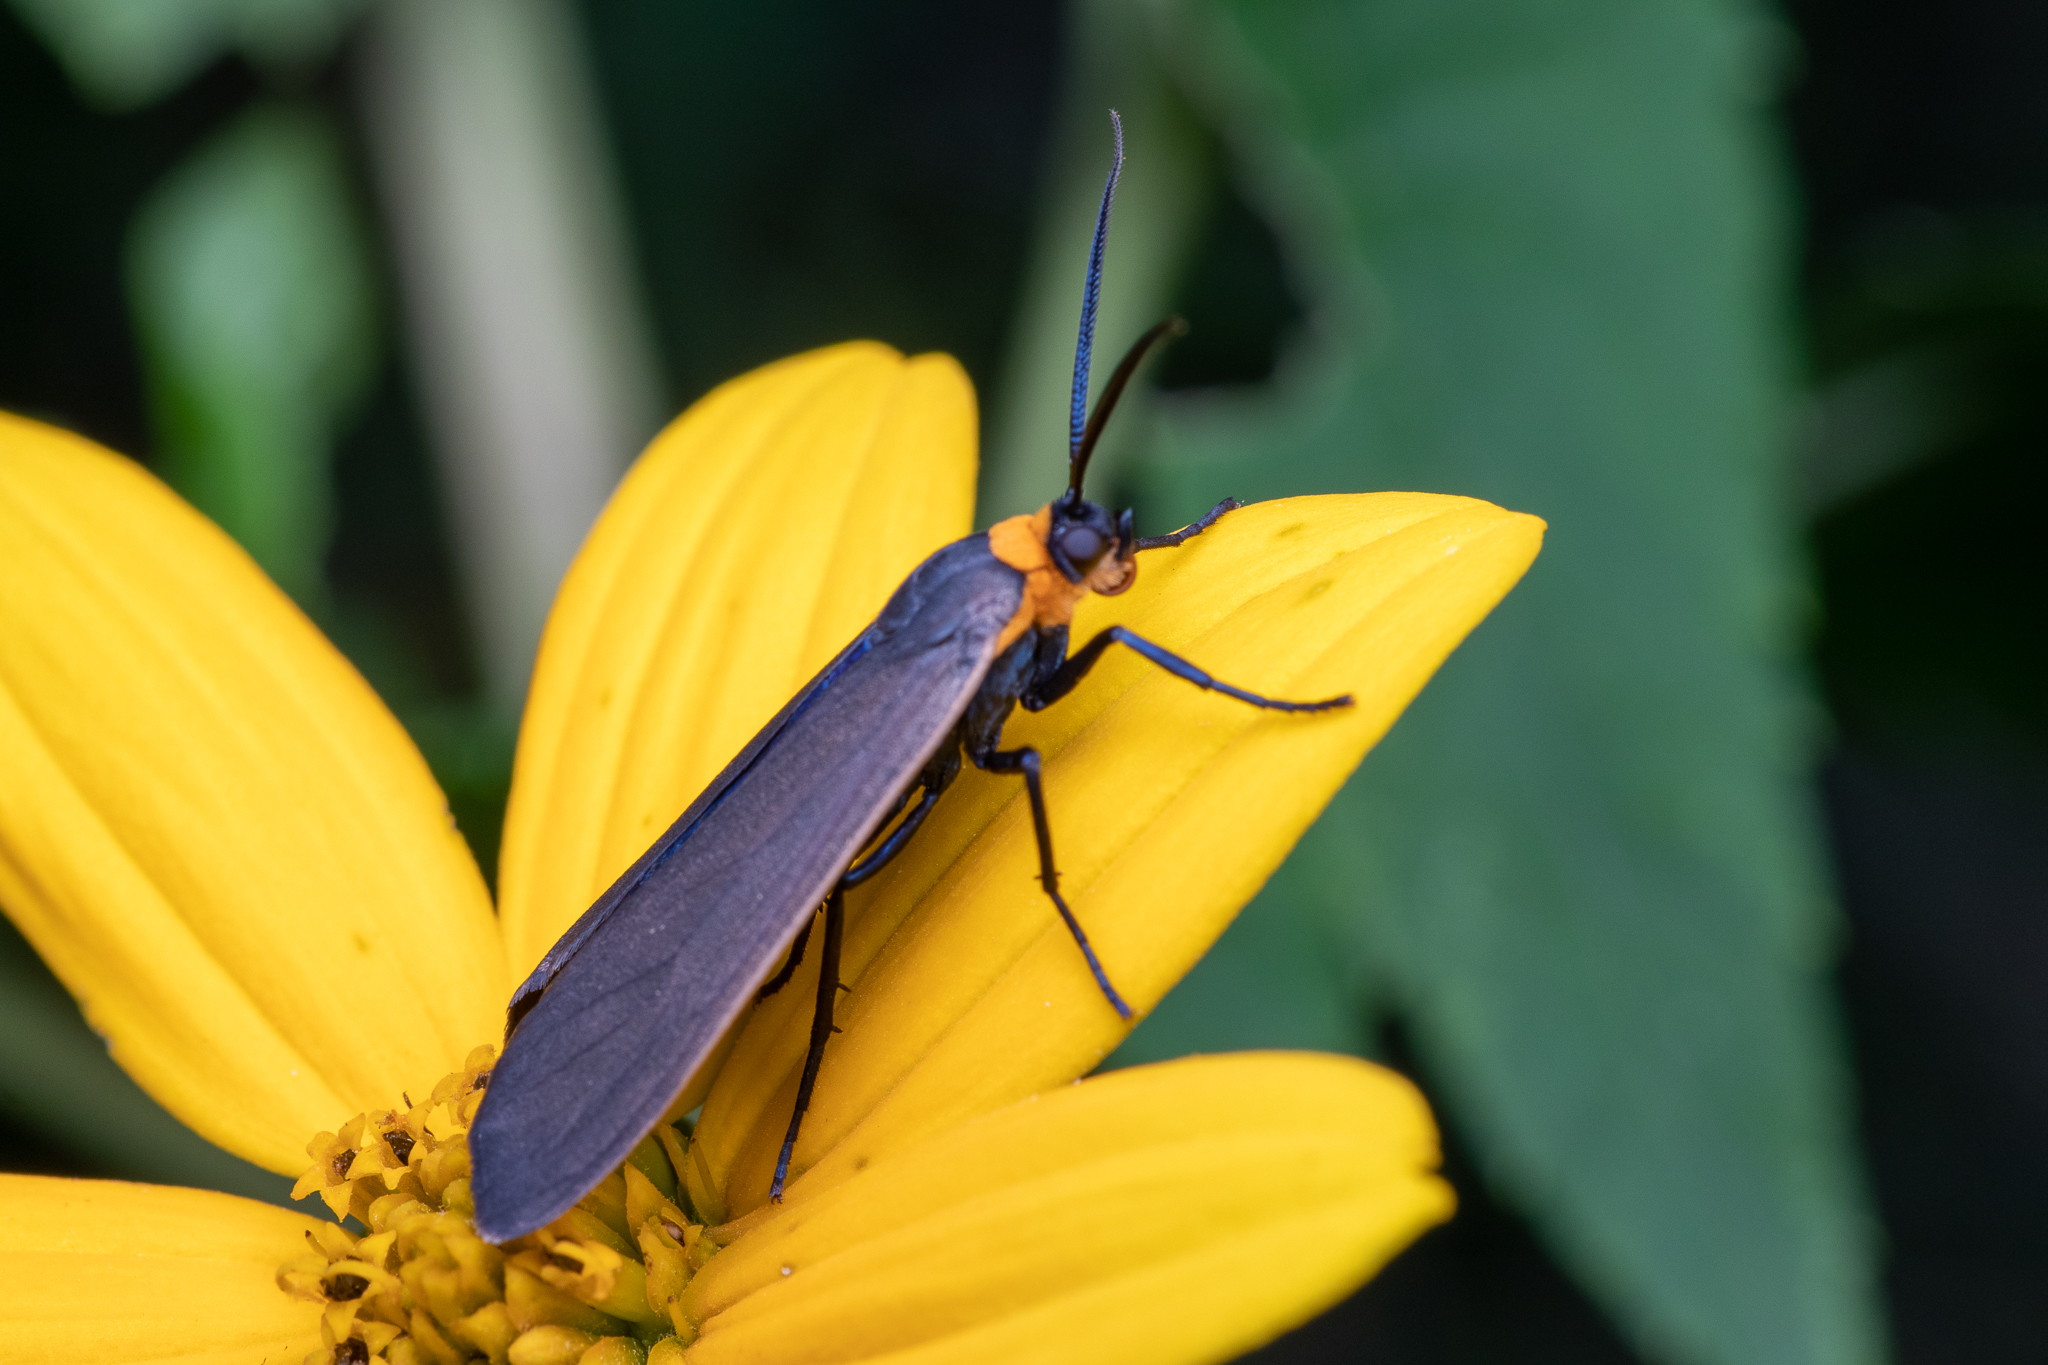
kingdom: Animalia
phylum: Arthropoda
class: Insecta
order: Lepidoptera
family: Erebidae
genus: Cisseps
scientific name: Cisseps fulvicollis
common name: Yellow-collared scape moth
